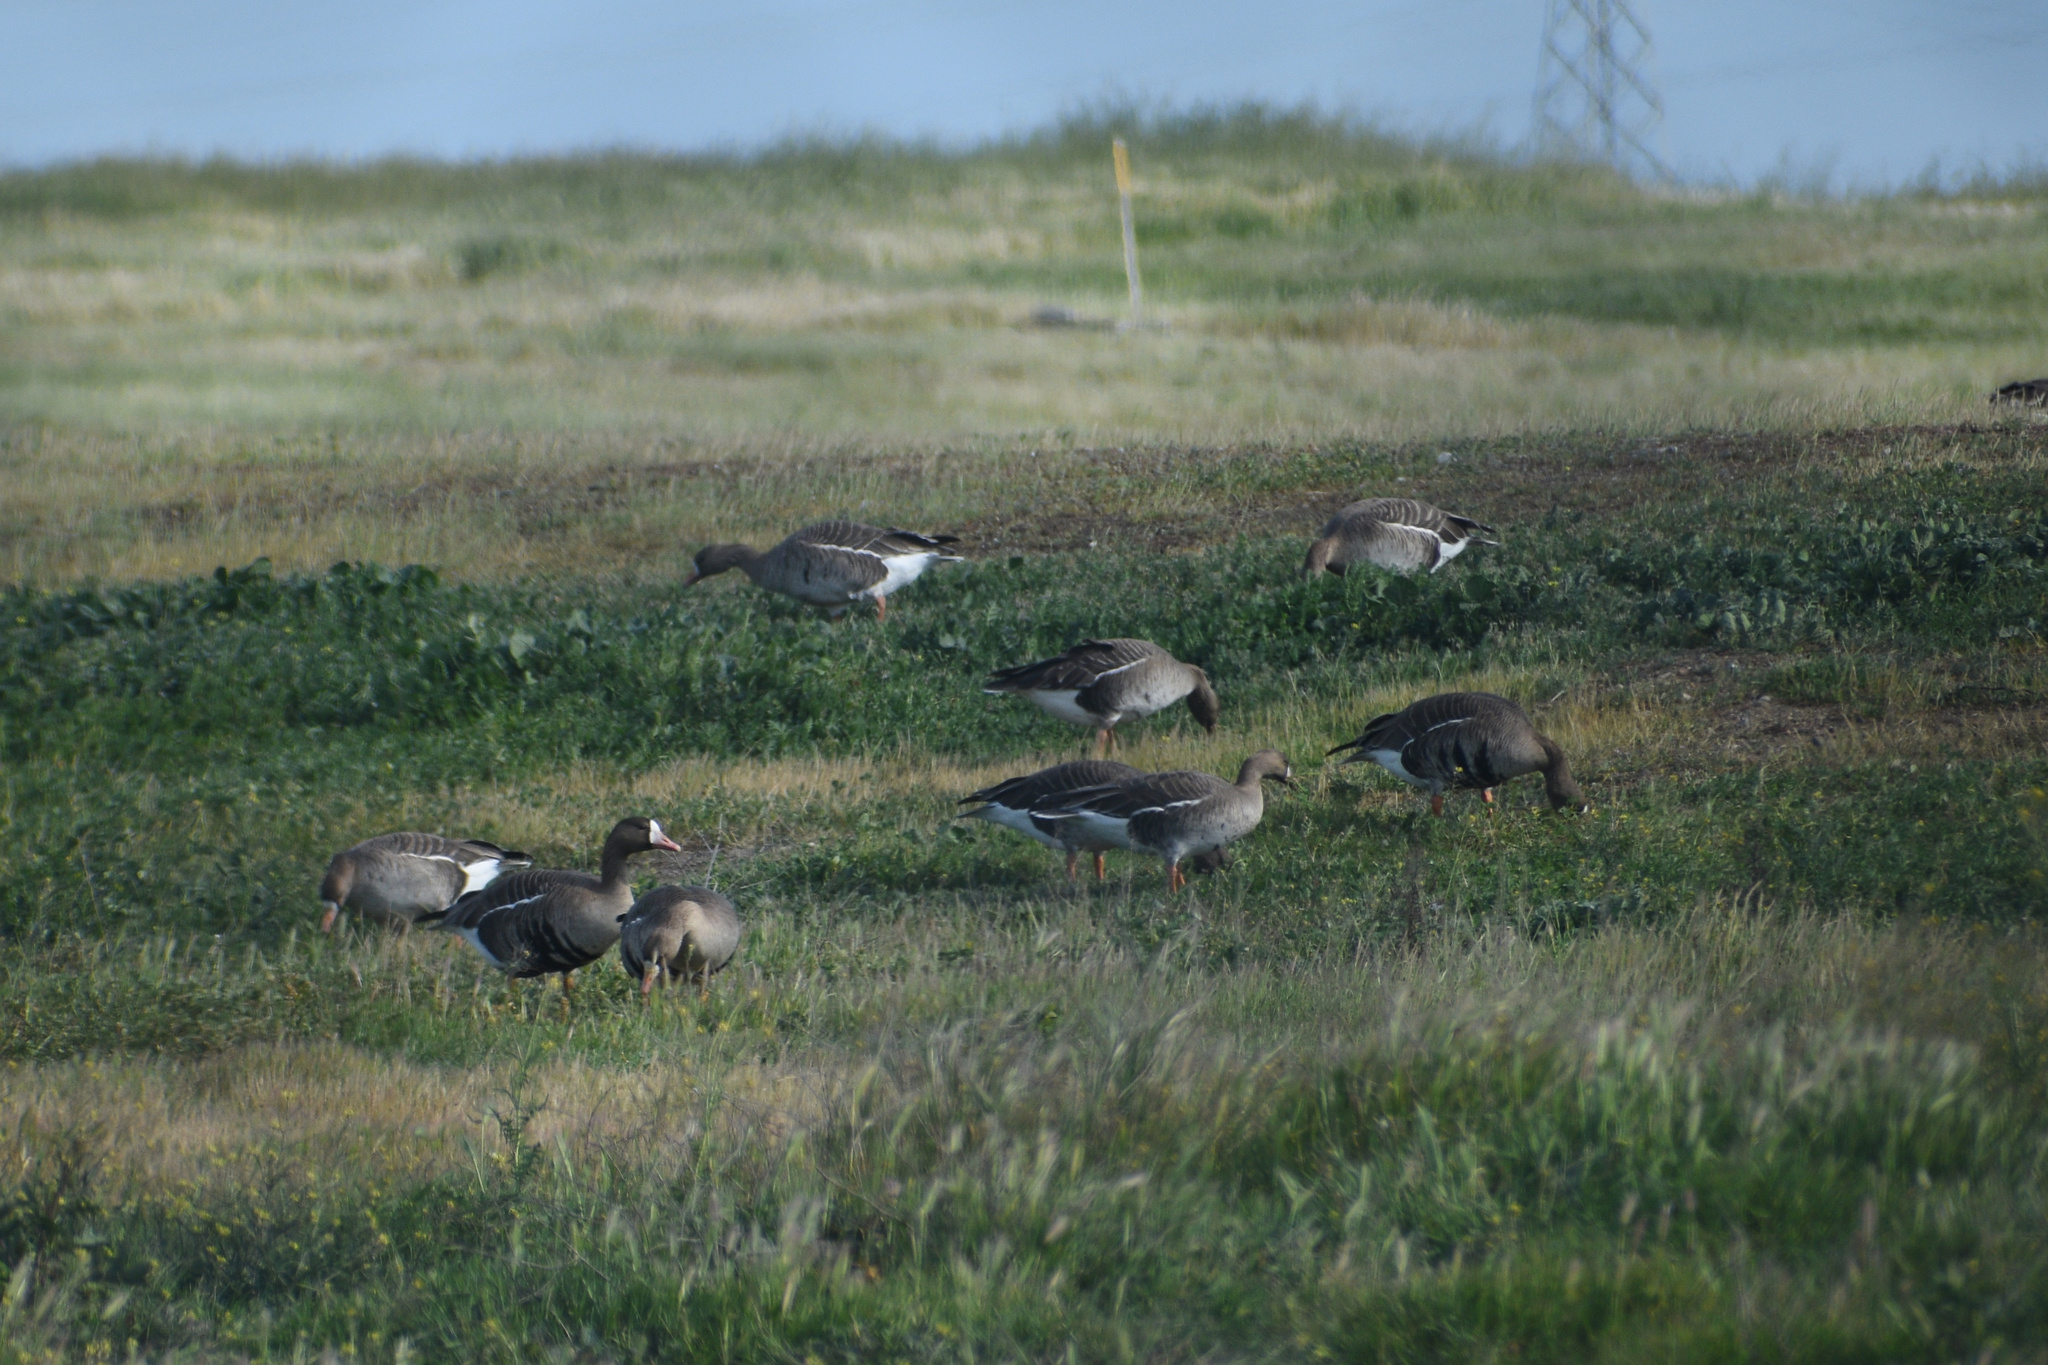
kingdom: Animalia
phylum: Chordata
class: Aves
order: Anseriformes
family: Anatidae
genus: Anser
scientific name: Anser albifrons
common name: Greater white-fronted goose
